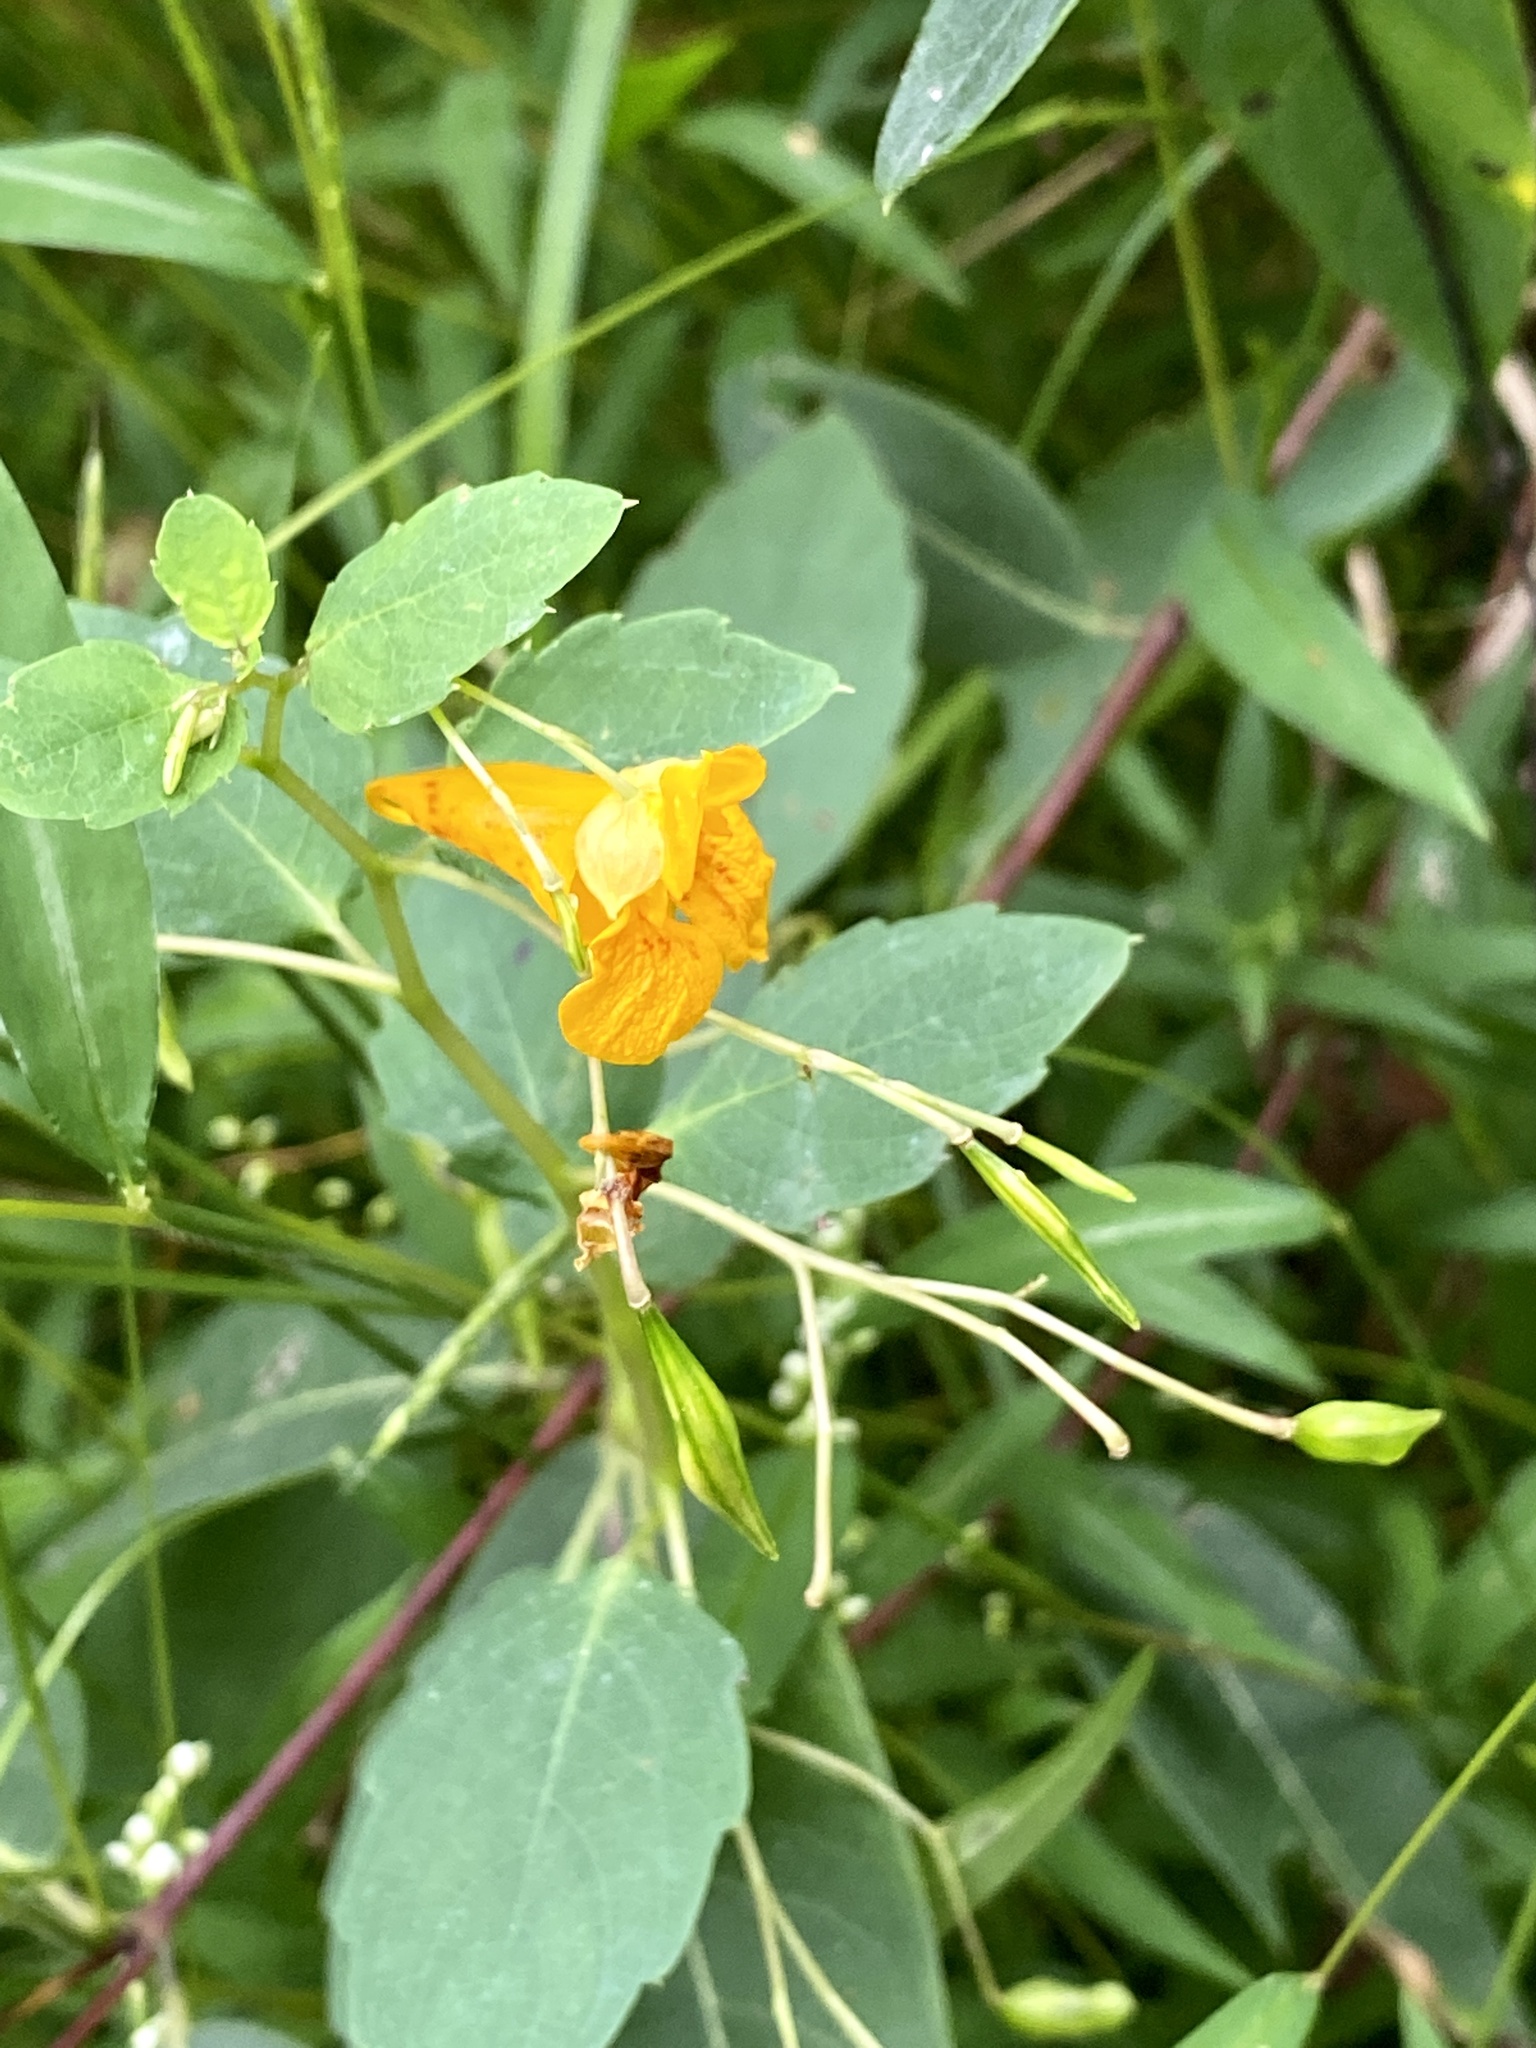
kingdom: Plantae
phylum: Tracheophyta
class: Magnoliopsida
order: Ericales
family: Balsaminaceae
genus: Impatiens
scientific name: Impatiens capensis
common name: Orange balsam
